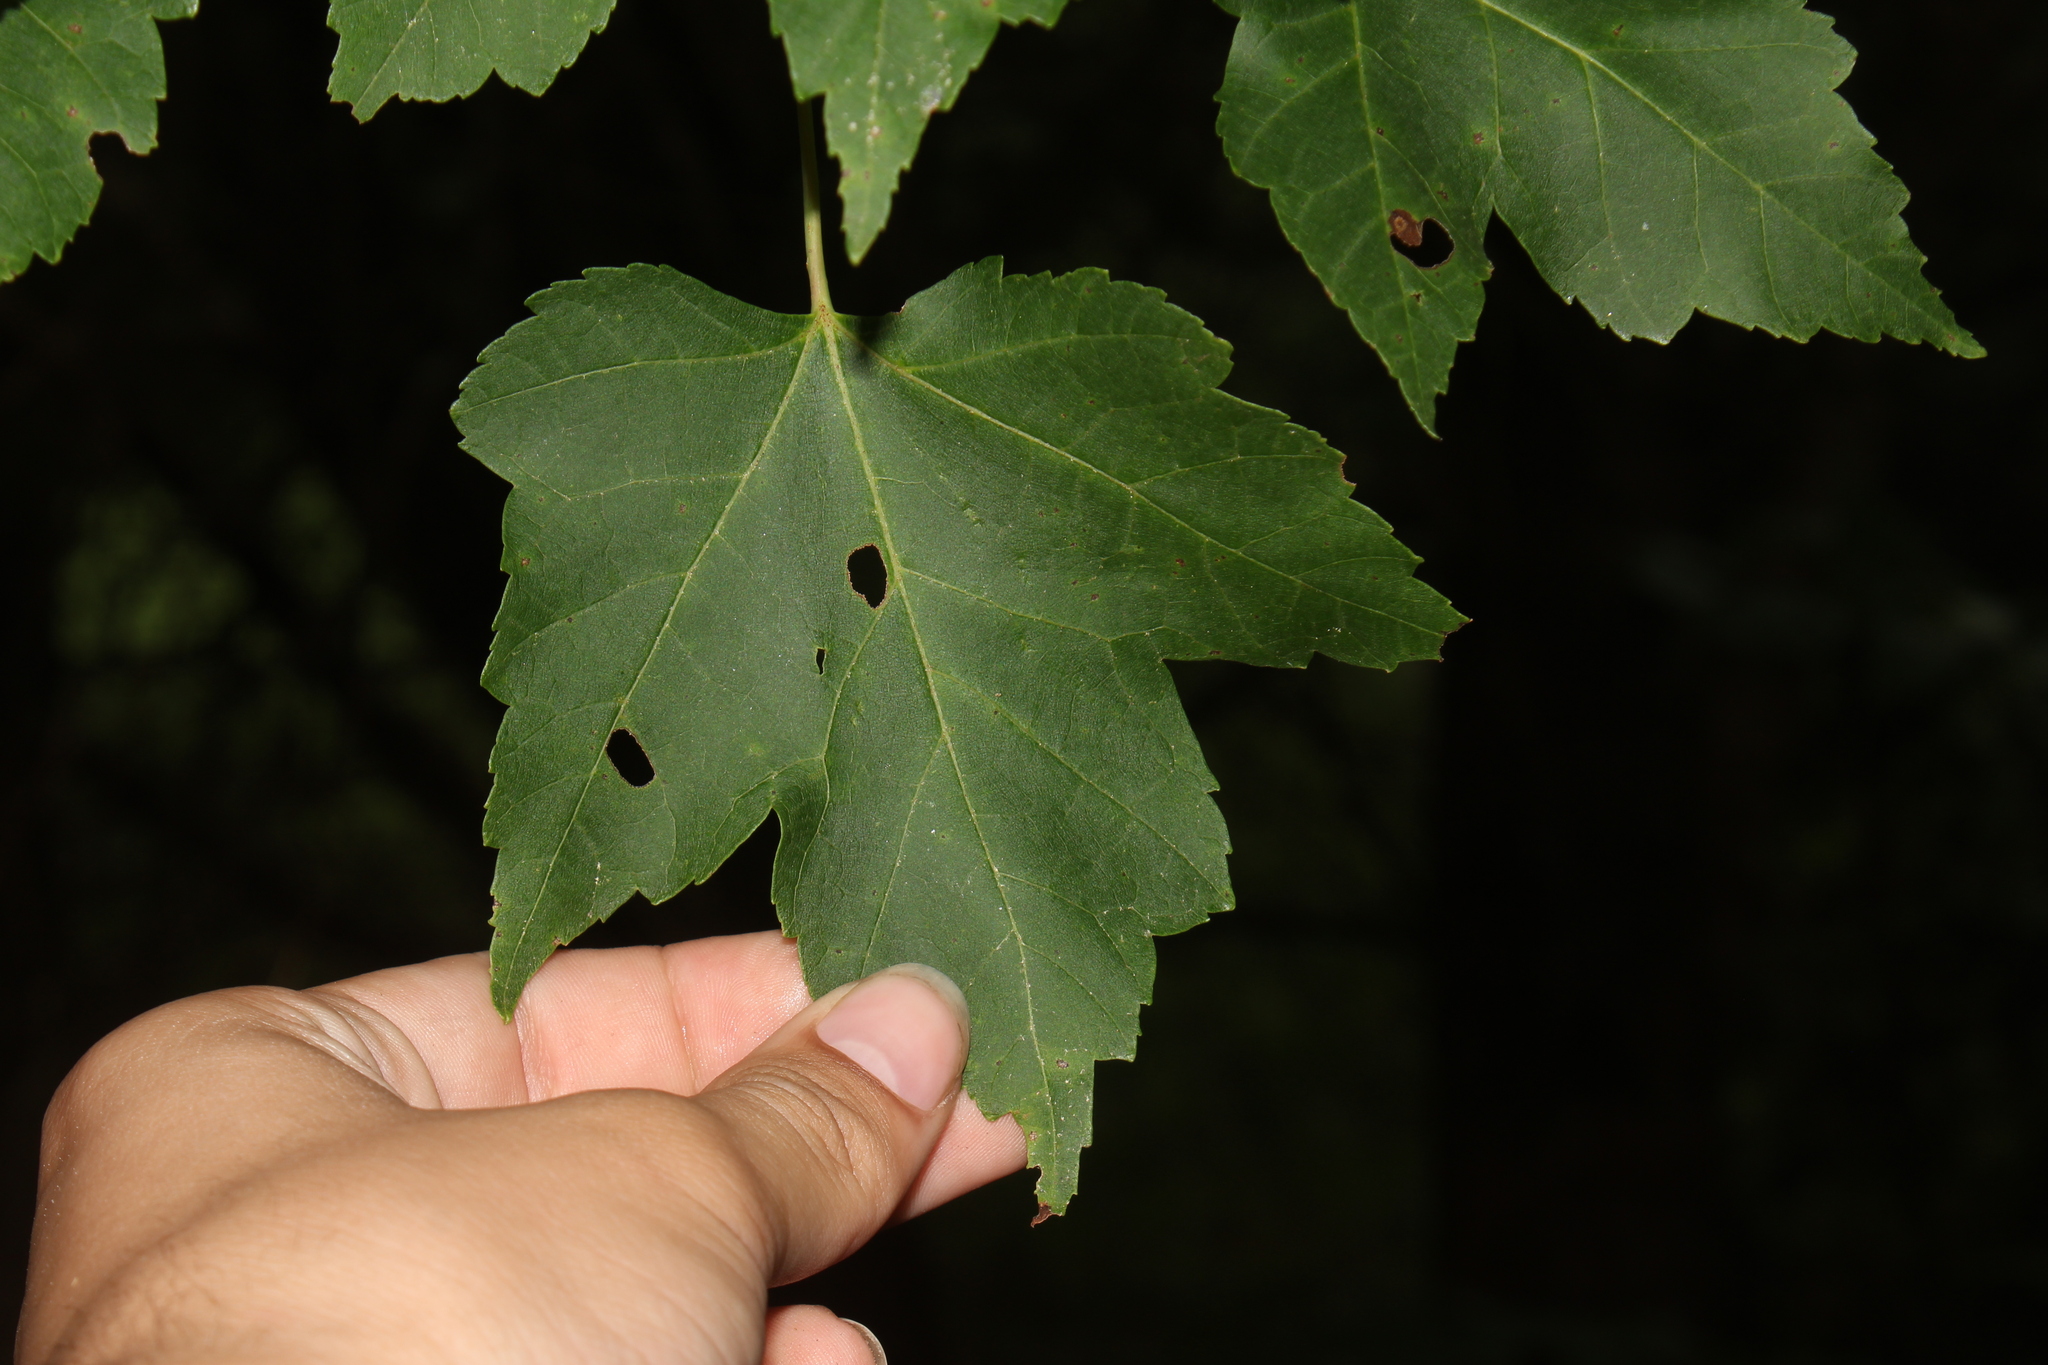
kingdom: Plantae
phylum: Tracheophyta
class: Magnoliopsida
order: Sapindales
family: Sapindaceae
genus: Acer
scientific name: Acer rubrum
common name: Red maple
